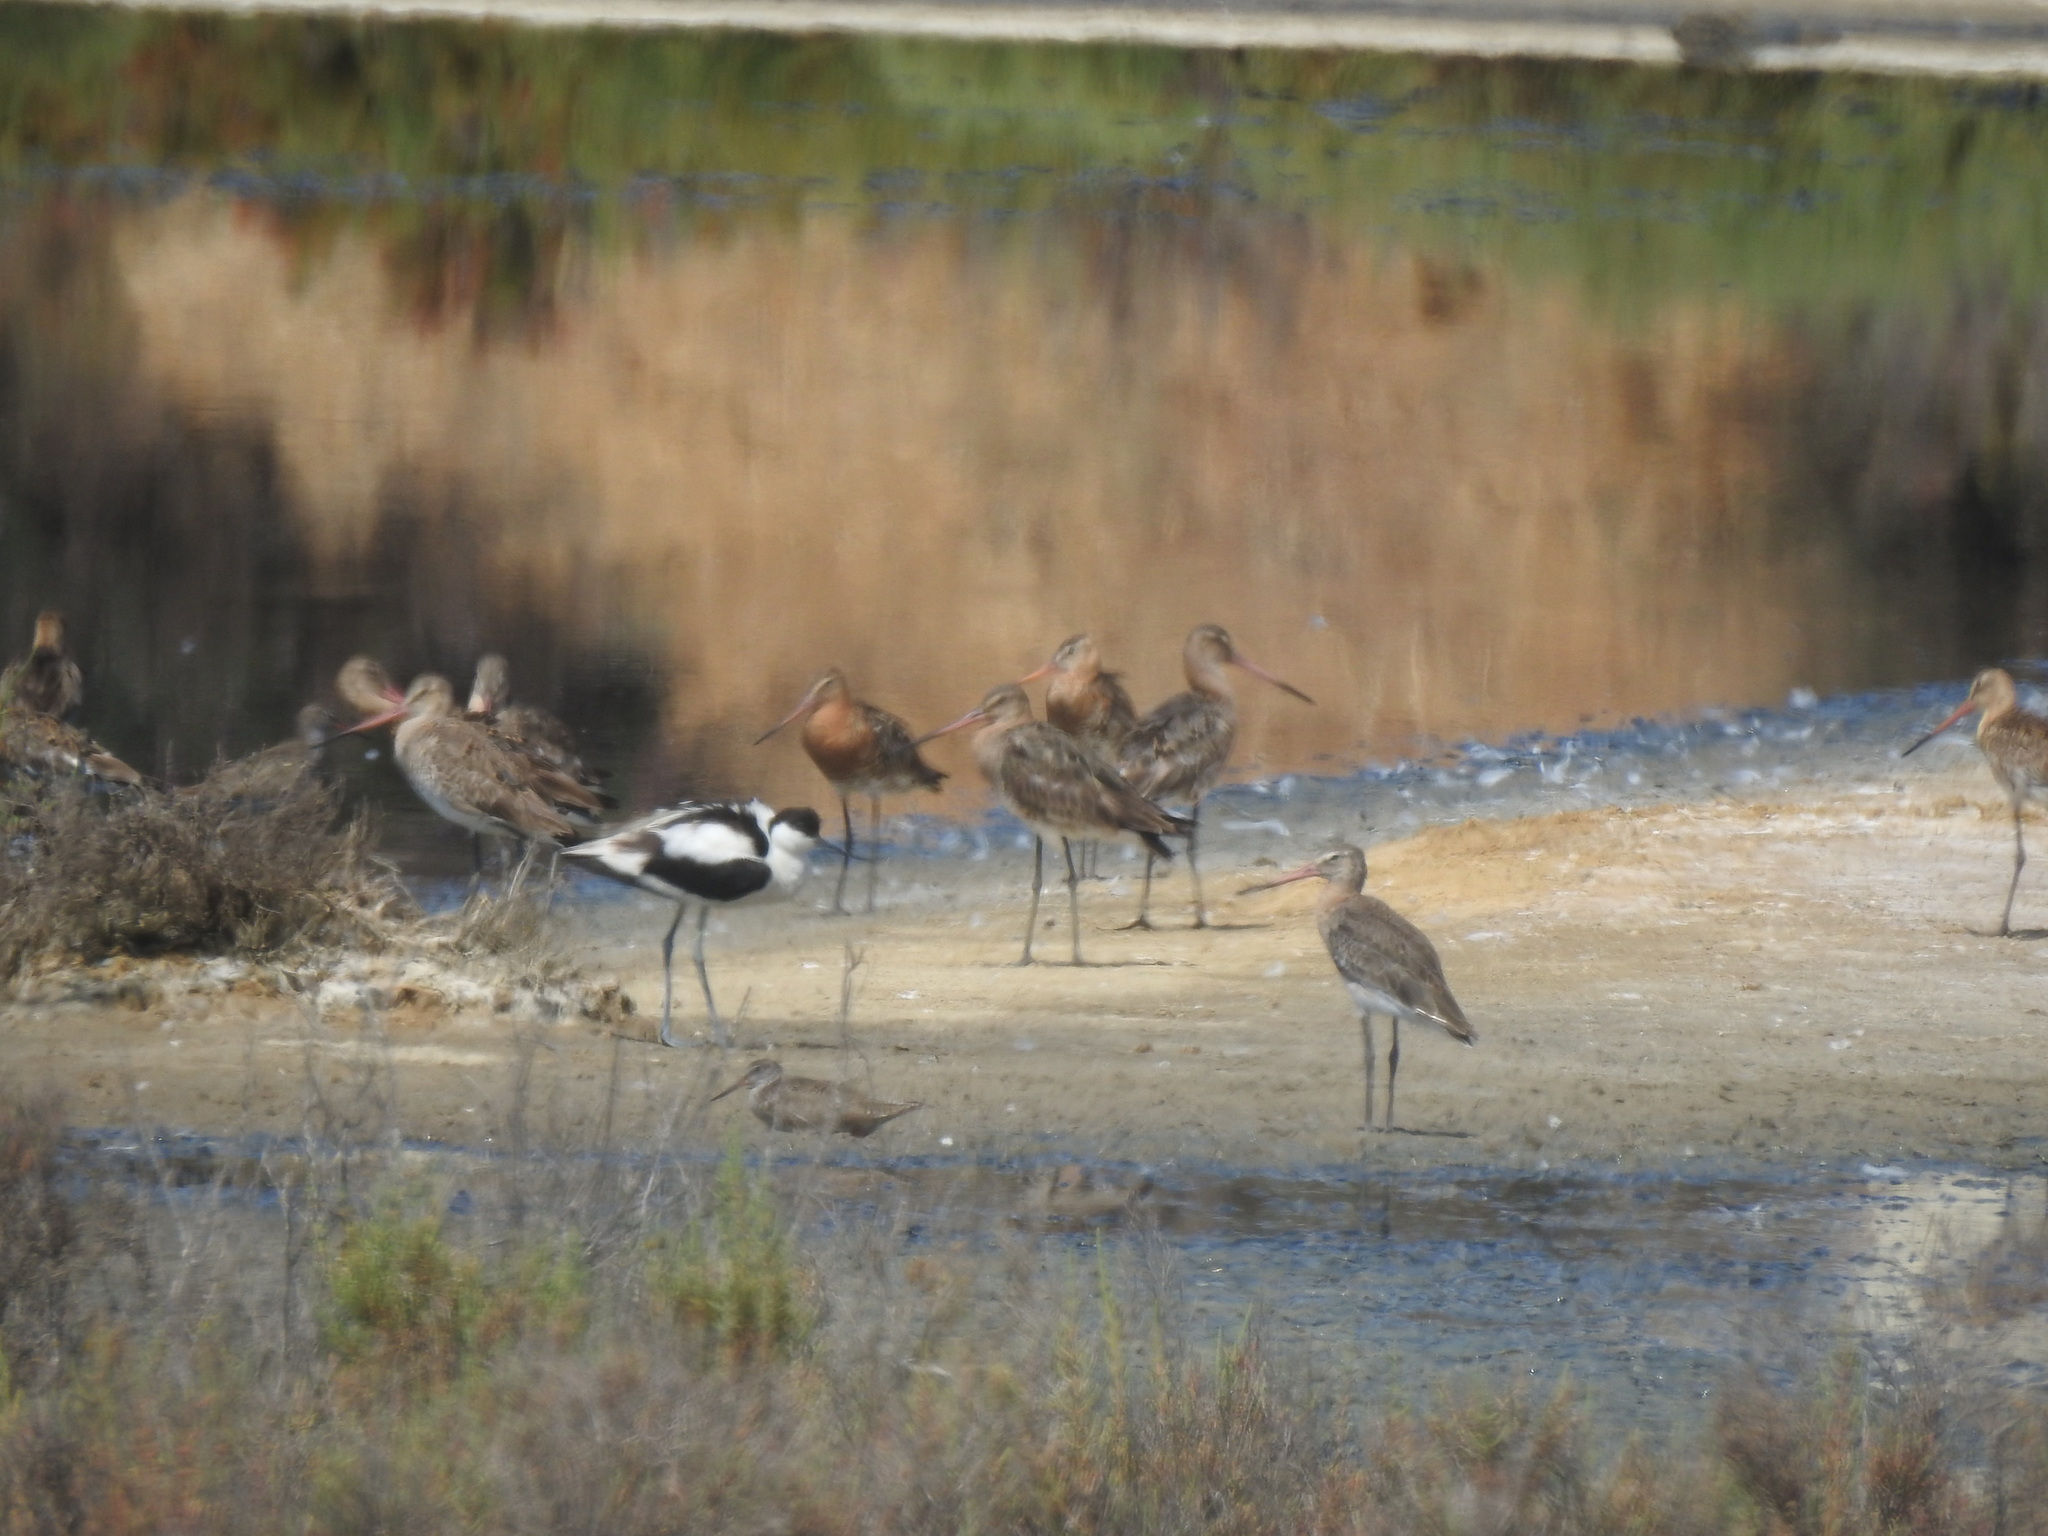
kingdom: Animalia
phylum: Chordata
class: Aves
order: Charadriiformes
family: Scolopacidae
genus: Limosa
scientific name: Limosa limosa
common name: Black-tailed godwit
